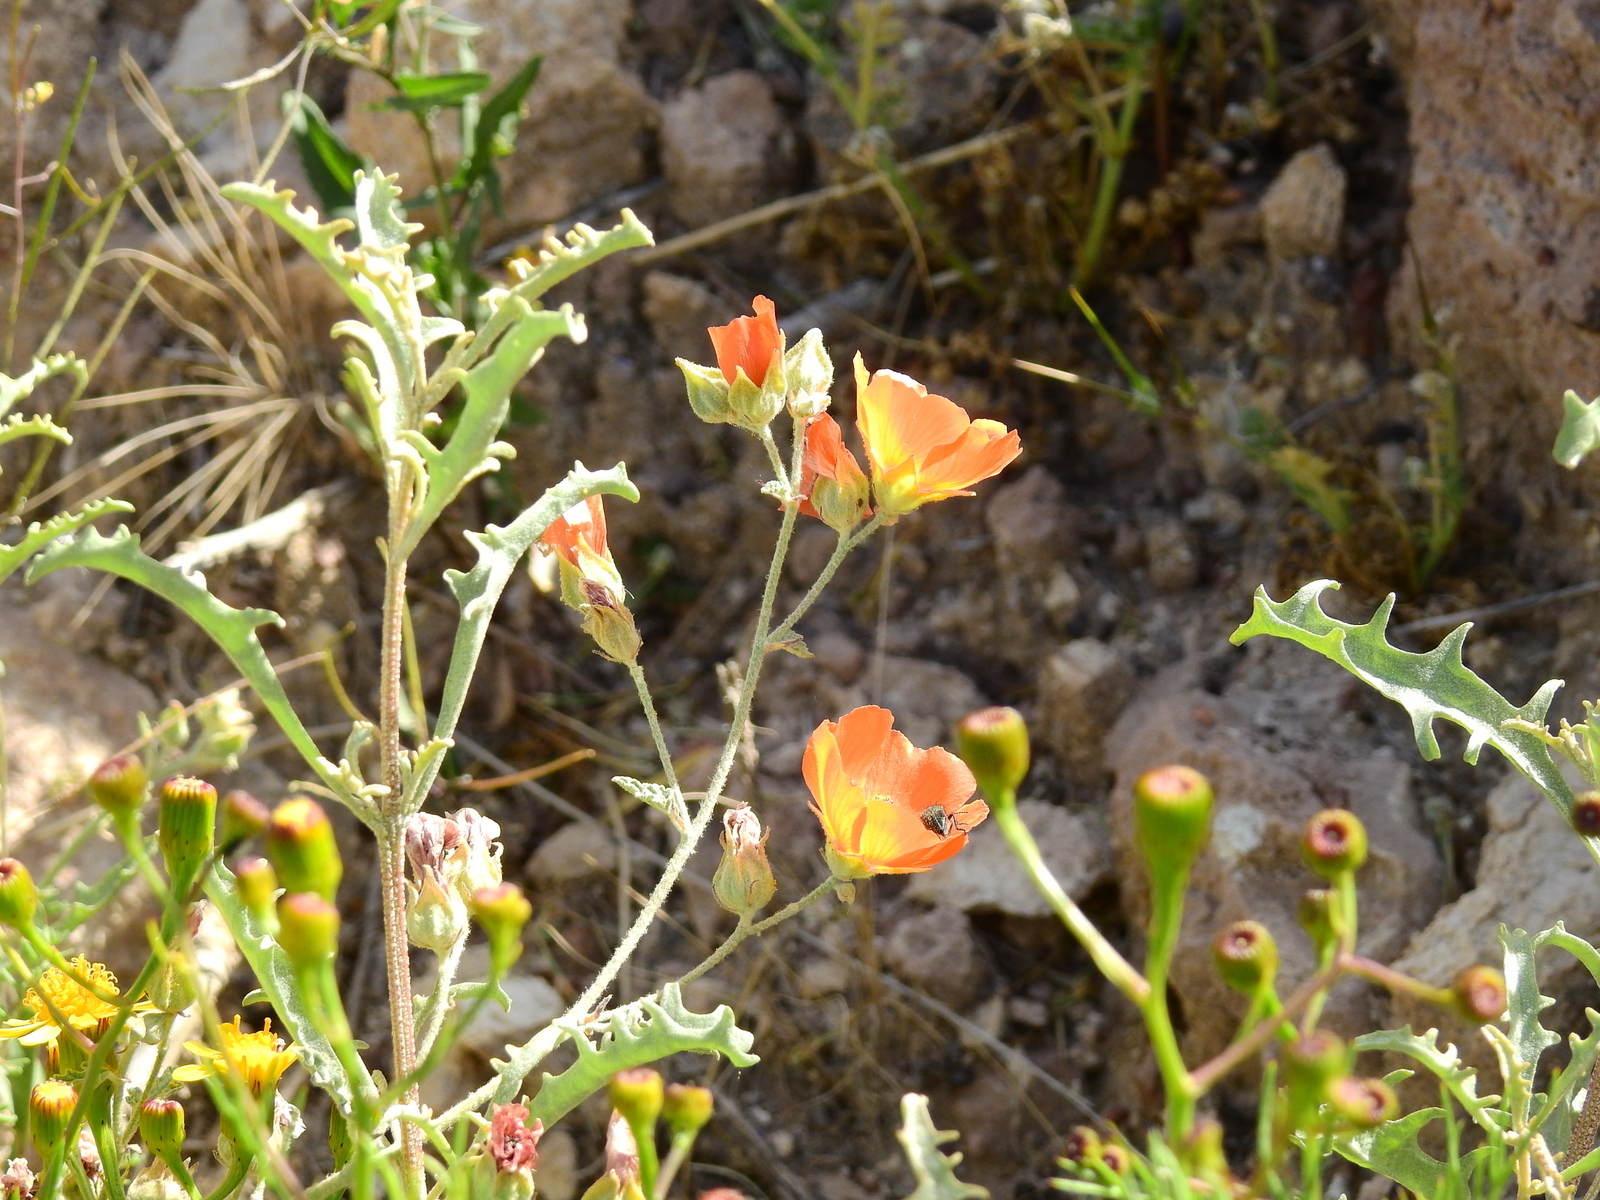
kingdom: Plantae
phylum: Tracheophyta
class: Magnoliopsida
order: Malvales
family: Malvaceae
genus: Sphaeralcea
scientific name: Sphaeralcea miniata
